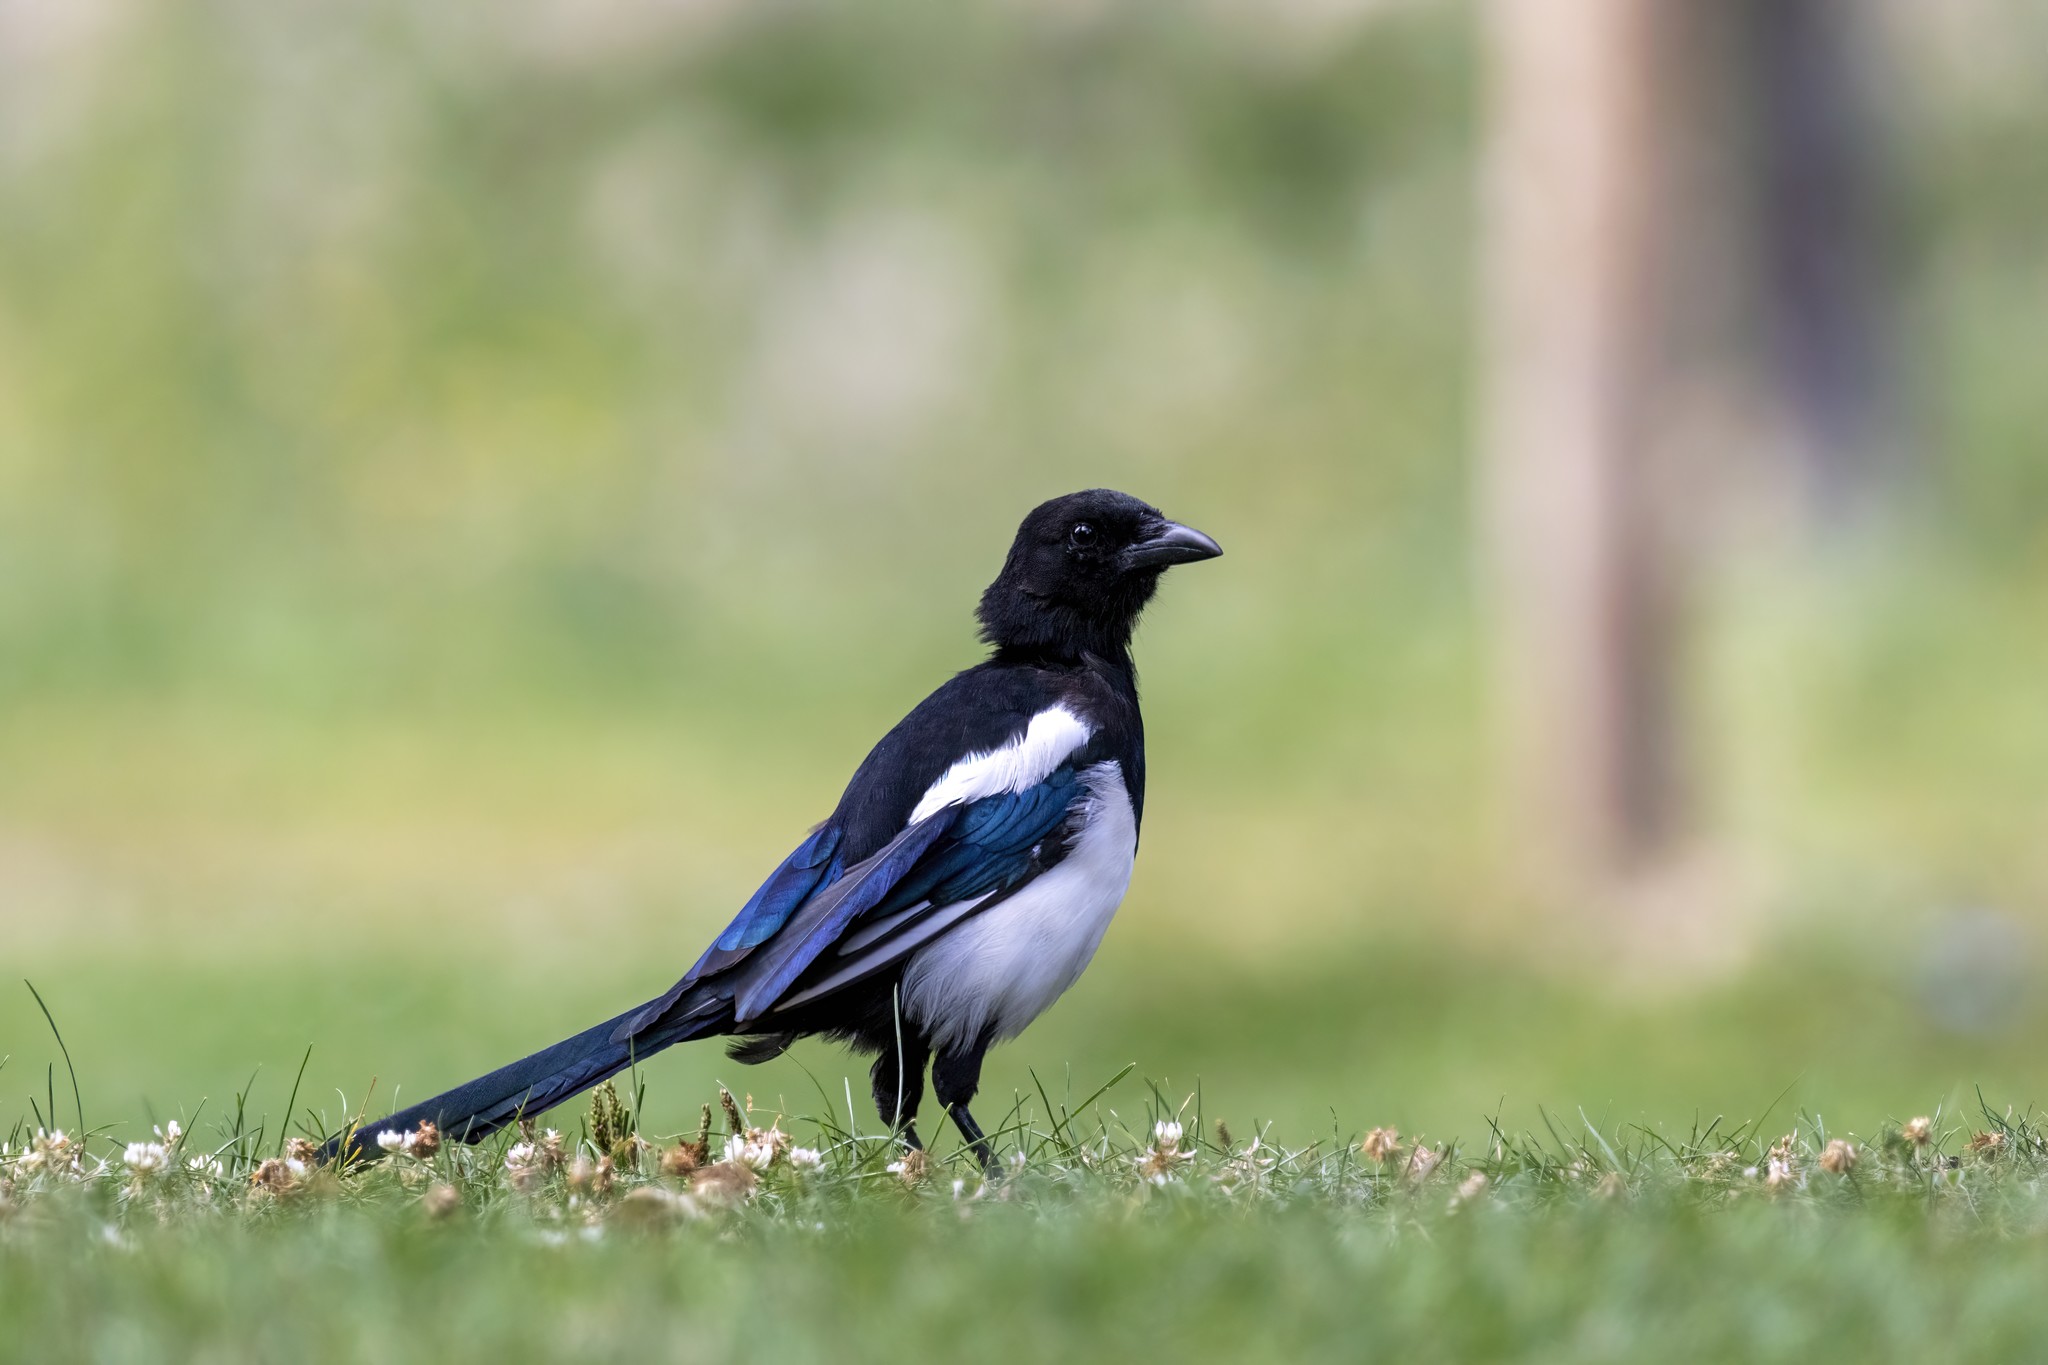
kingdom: Animalia
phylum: Chordata
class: Aves
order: Passeriformes
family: Corvidae
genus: Pica
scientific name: Pica pica
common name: Eurasian magpie
